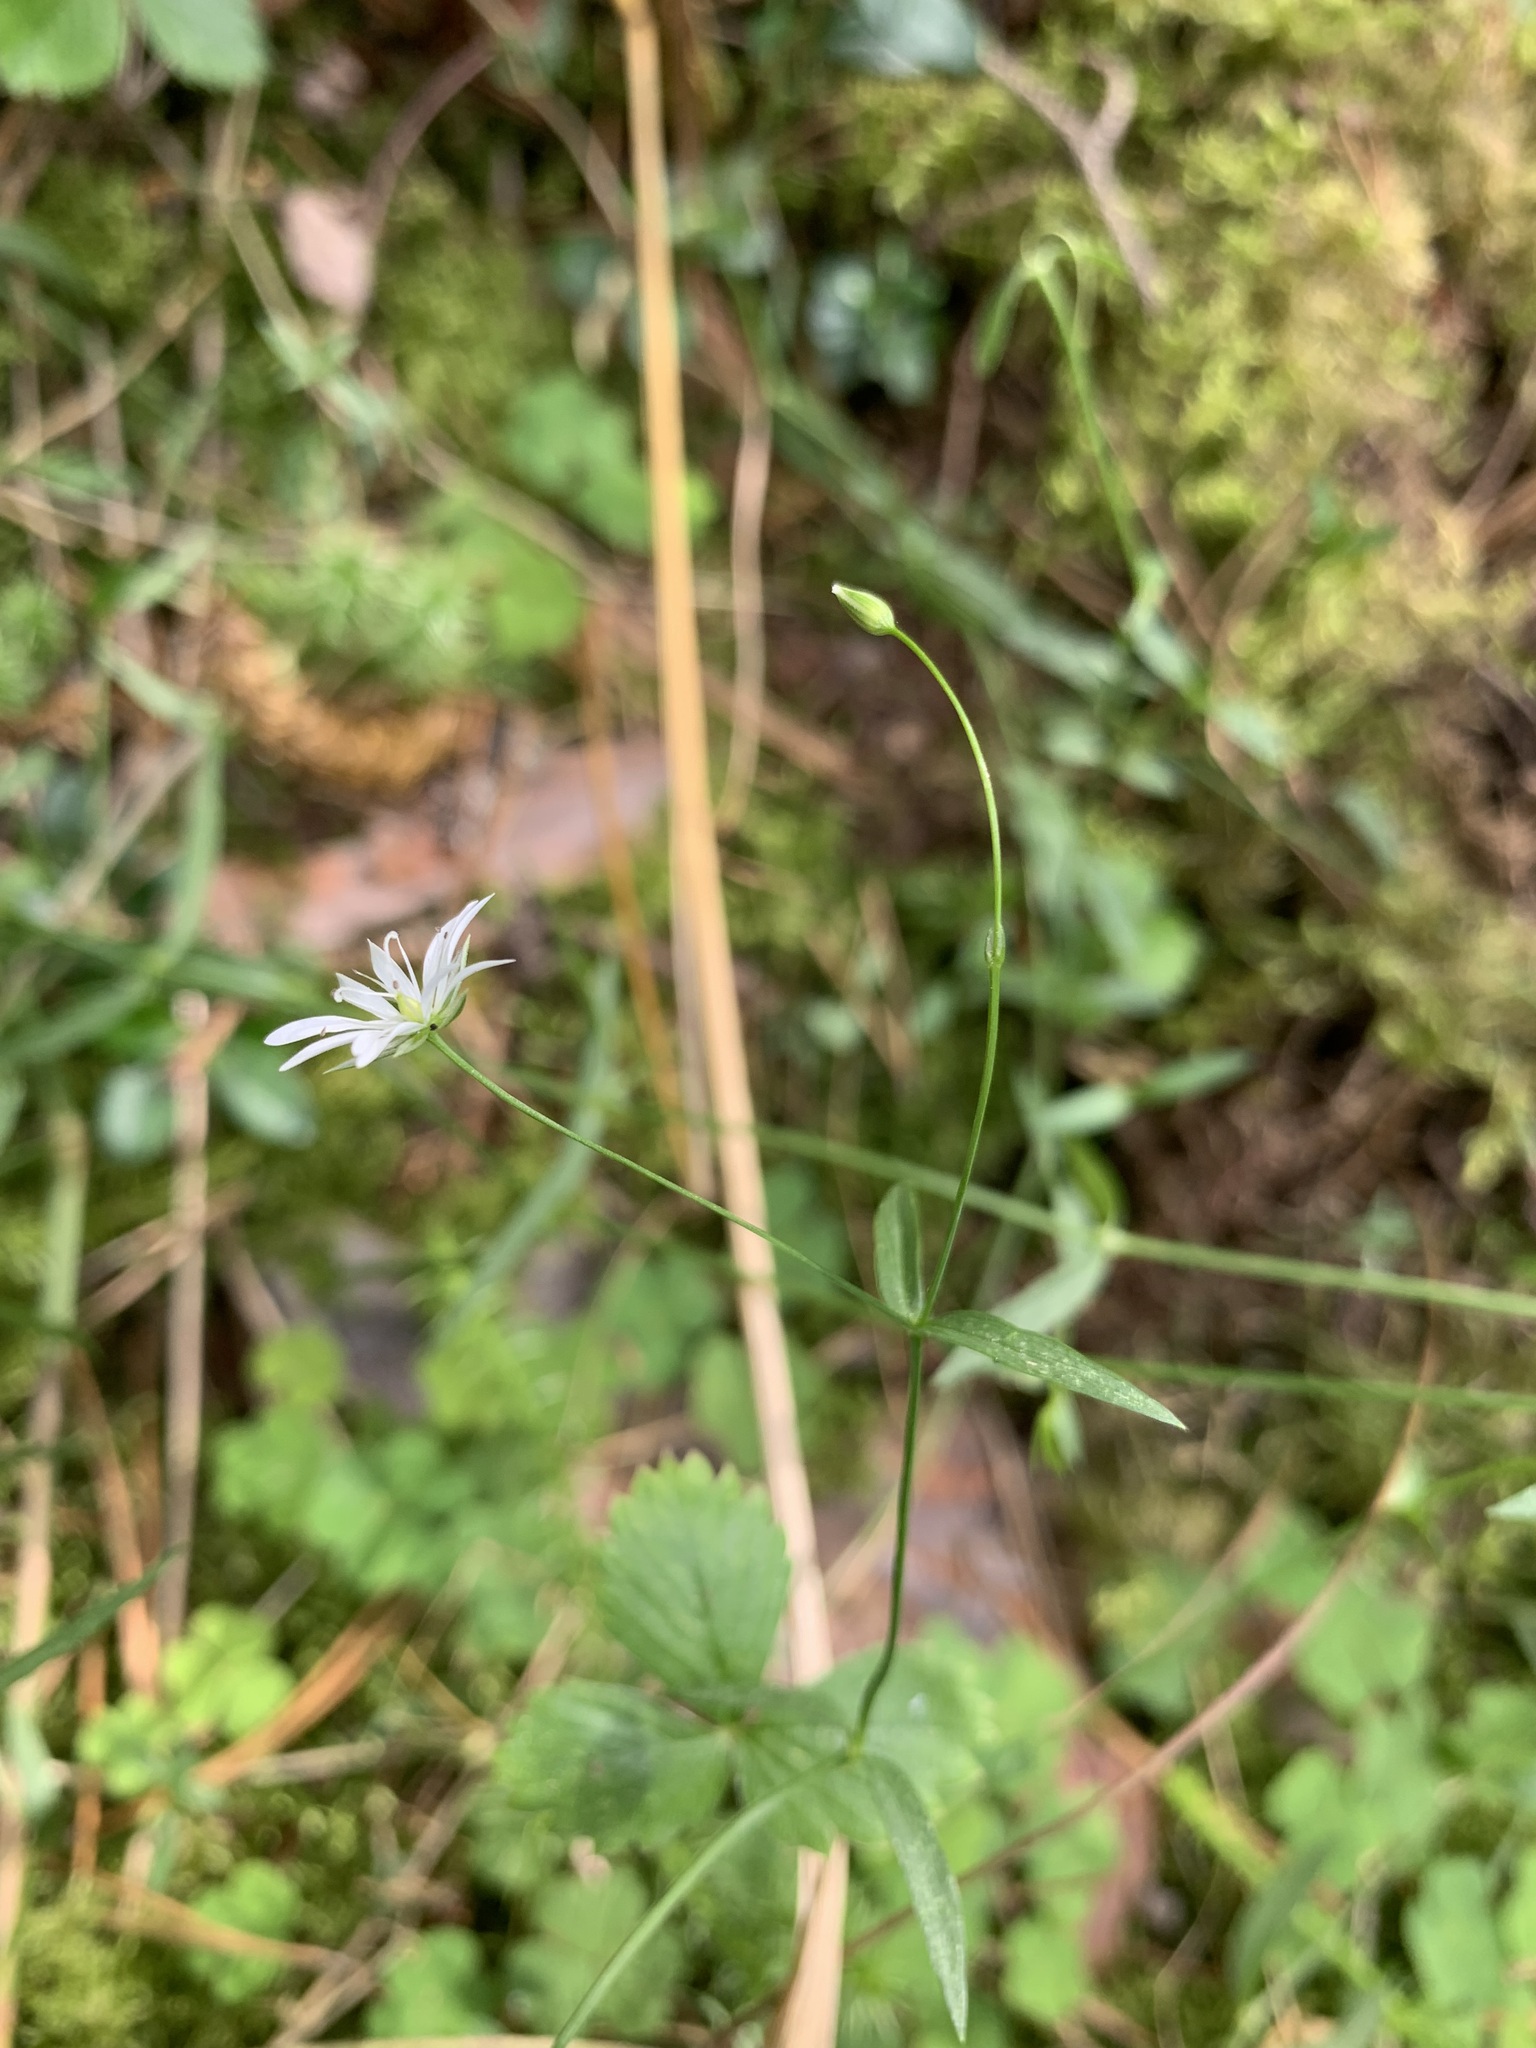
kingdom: Plantae
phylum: Tracheophyta
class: Magnoliopsida
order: Caryophyllales
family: Caryophyllaceae
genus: Stellaria
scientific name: Stellaria graminea
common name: Grass-like starwort
